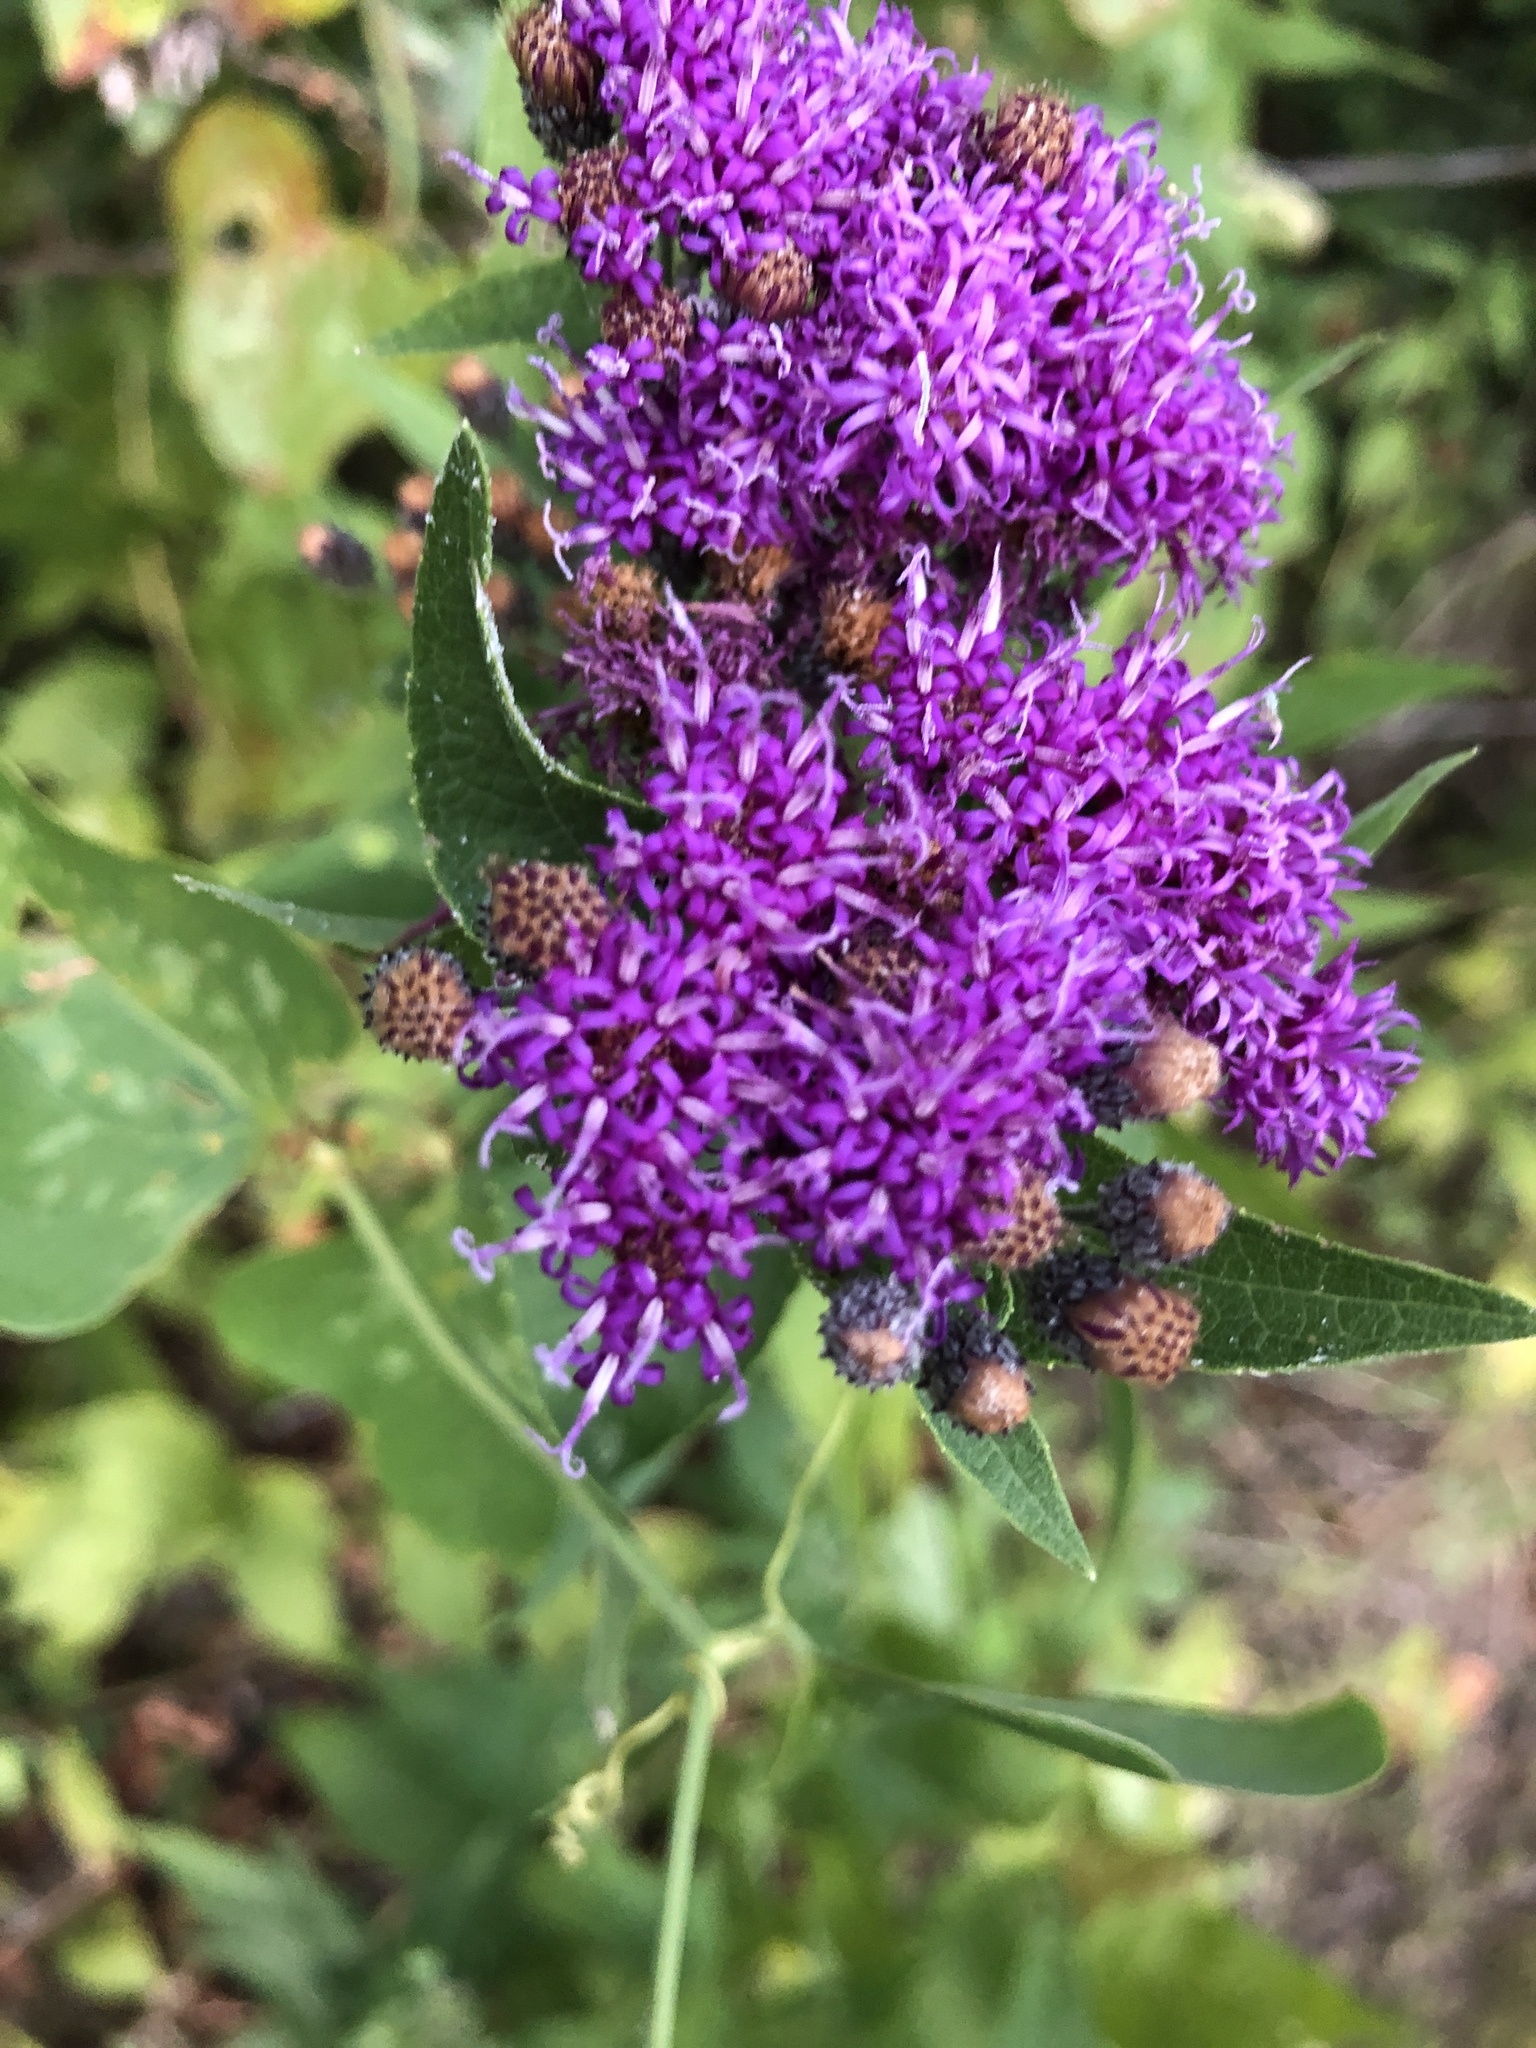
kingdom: Plantae
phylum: Tracheophyta
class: Magnoliopsida
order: Asterales
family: Asteraceae
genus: Vernonia
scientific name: Vernonia baldwinii
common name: Western ironweed
